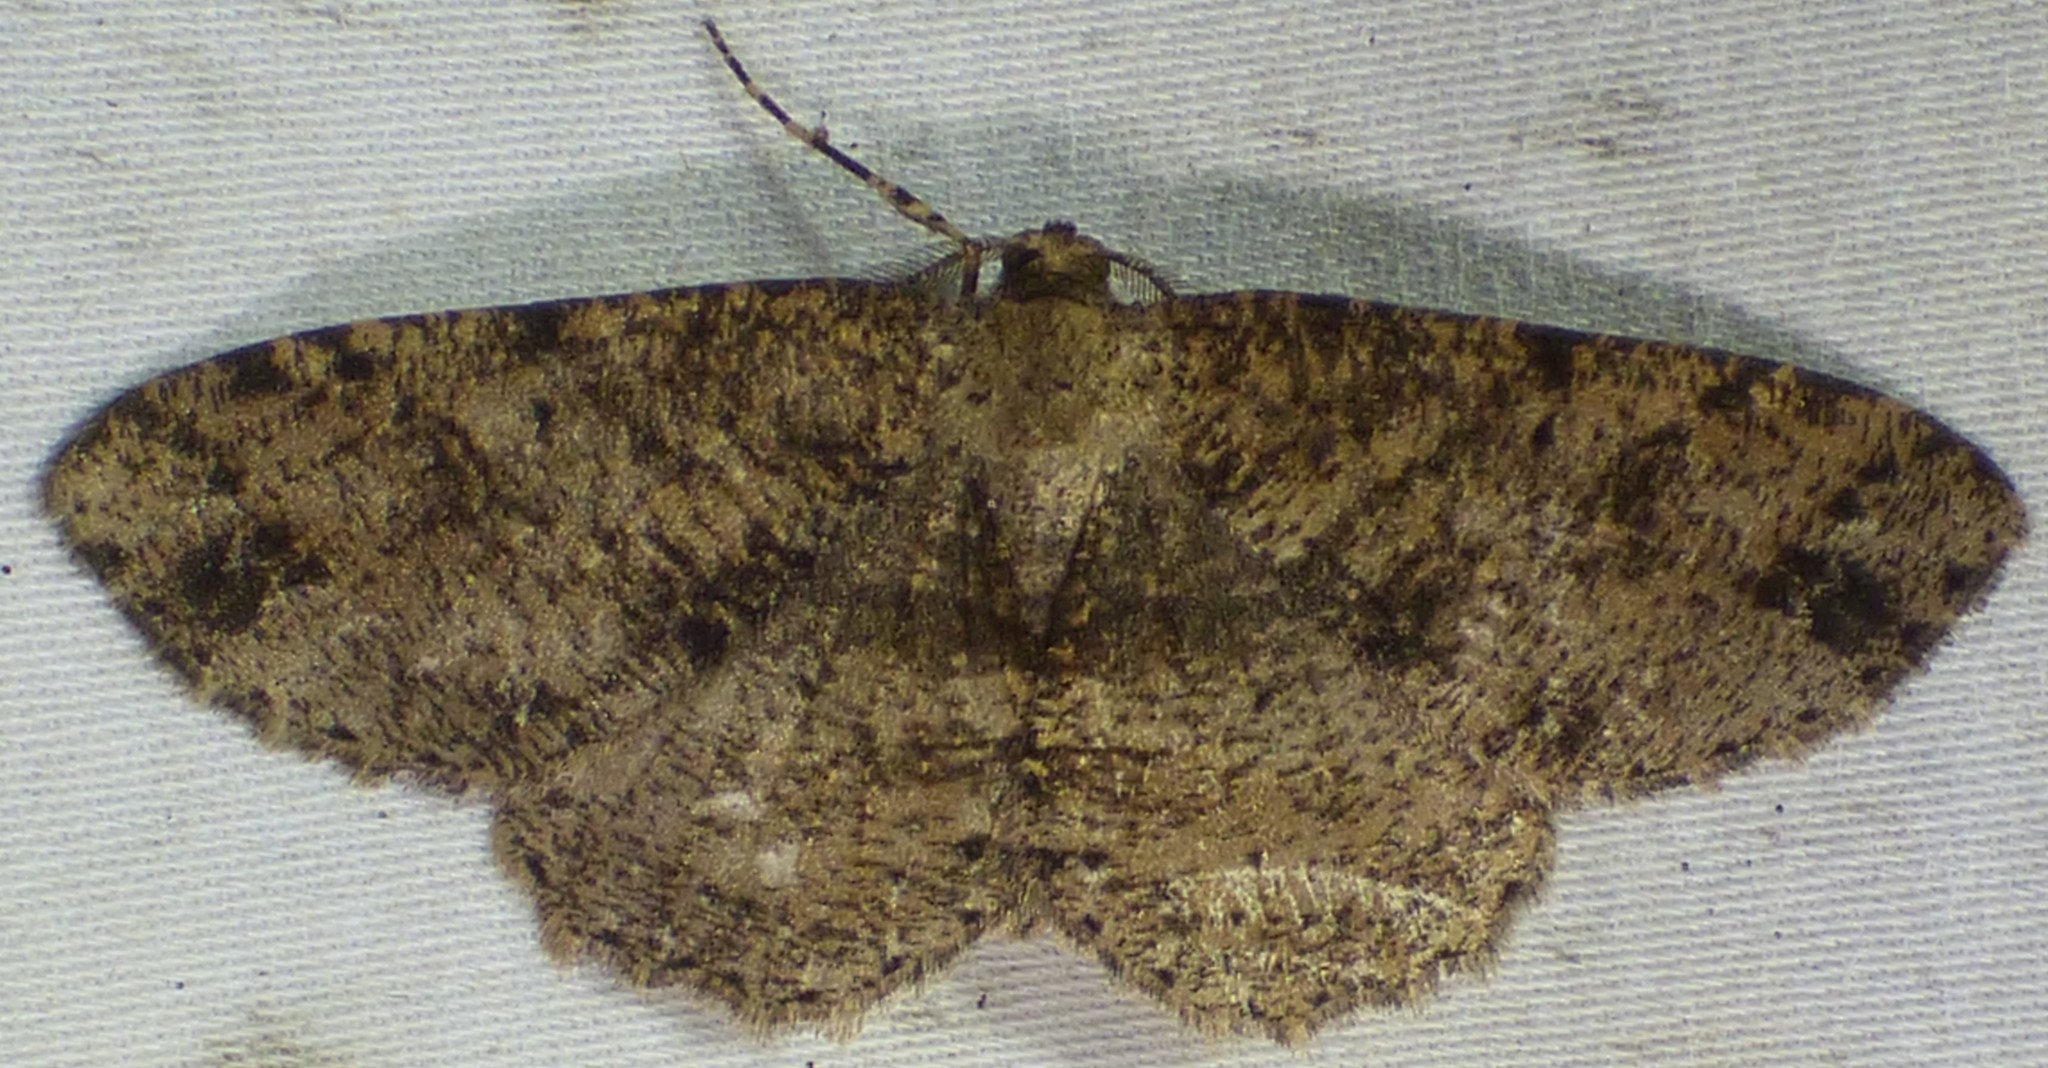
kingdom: Animalia
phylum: Arthropoda
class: Insecta
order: Lepidoptera
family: Geometridae
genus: Melanolophia
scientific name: Melanolophia canadaria
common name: Canadian melanolophia
